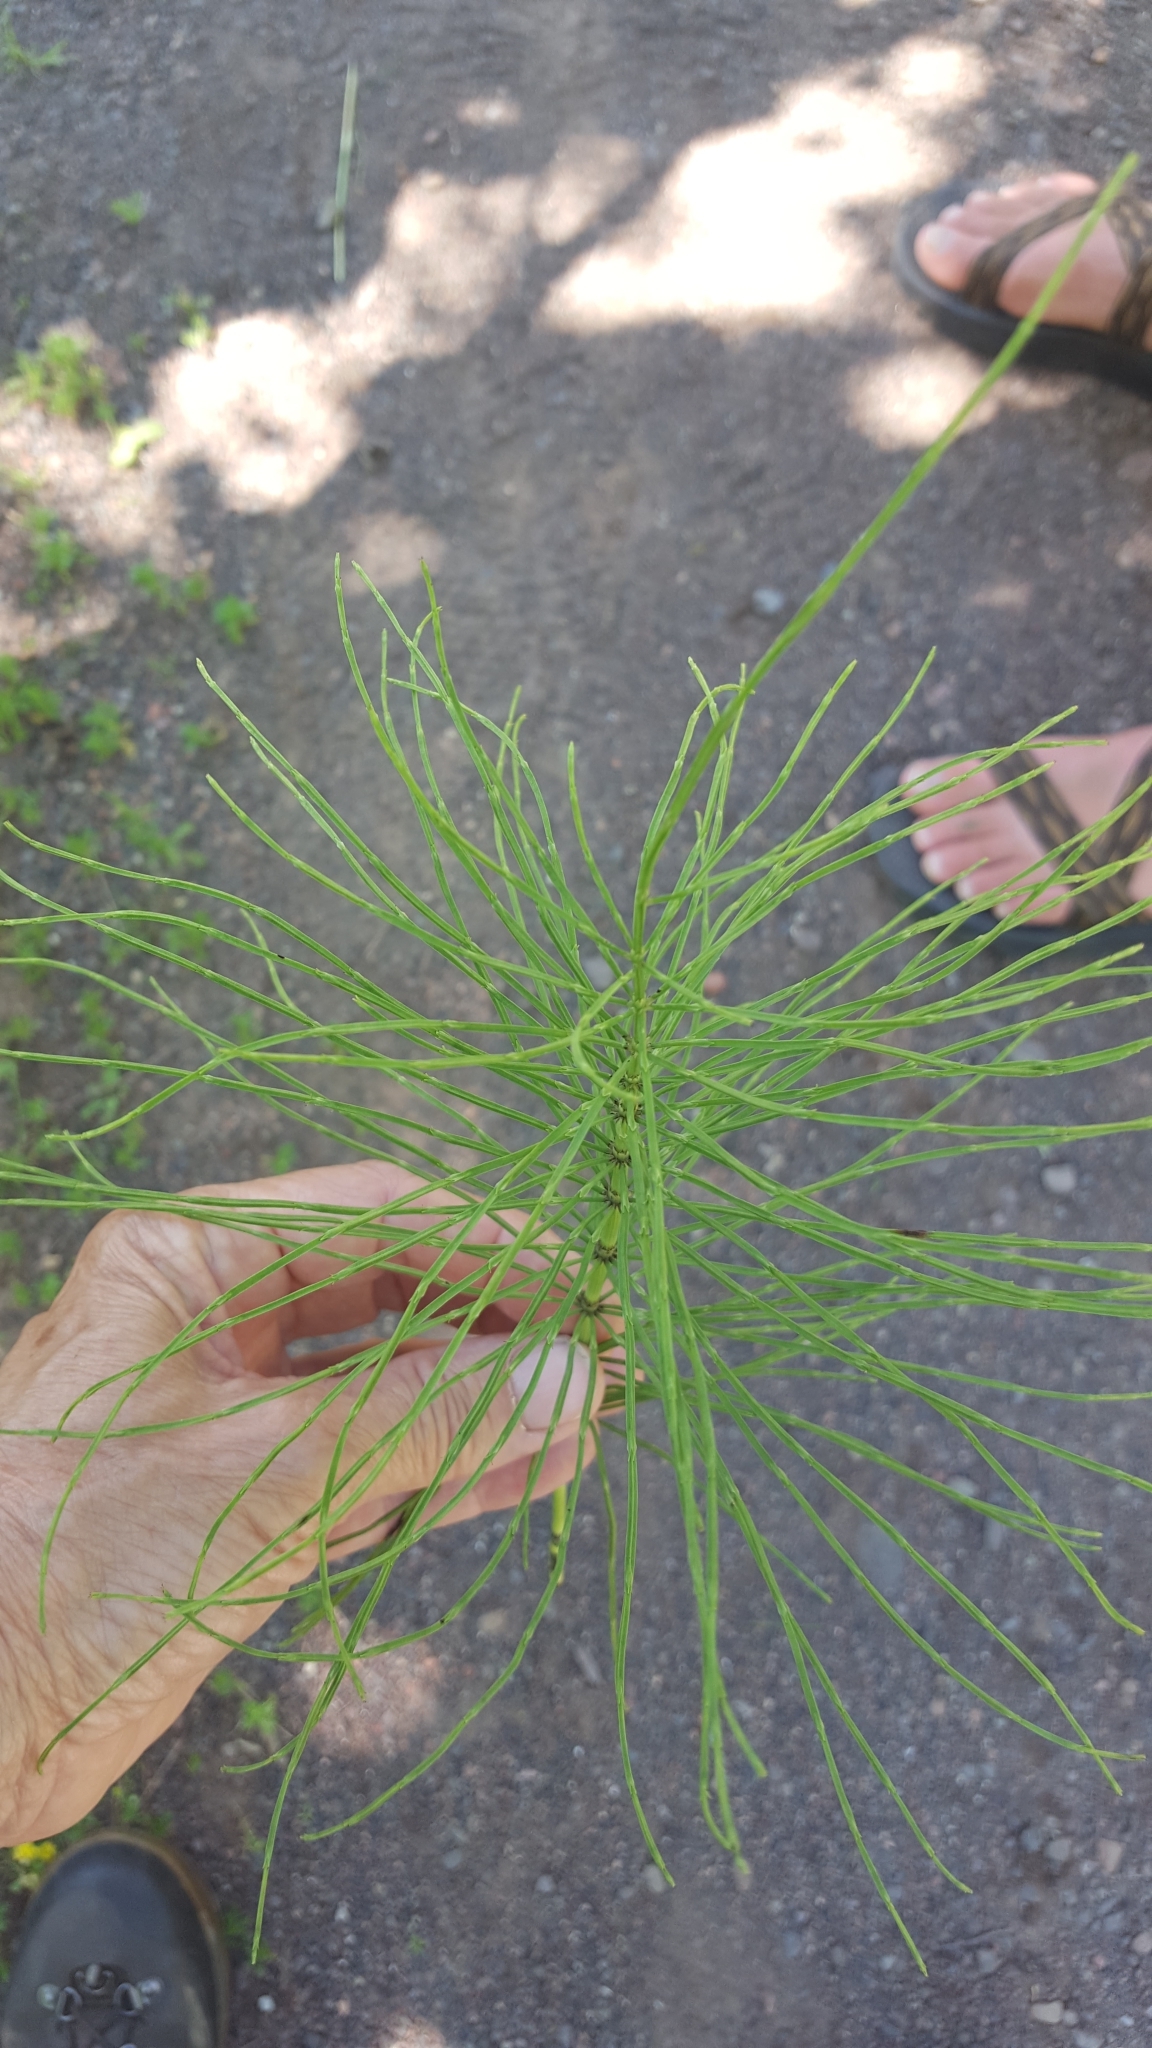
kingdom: Plantae
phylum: Tracheophyta
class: Polypodiopsida
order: Equisetales
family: Equisetaceae
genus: Equisetum
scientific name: Equisetum arvense
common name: Field horsetail
